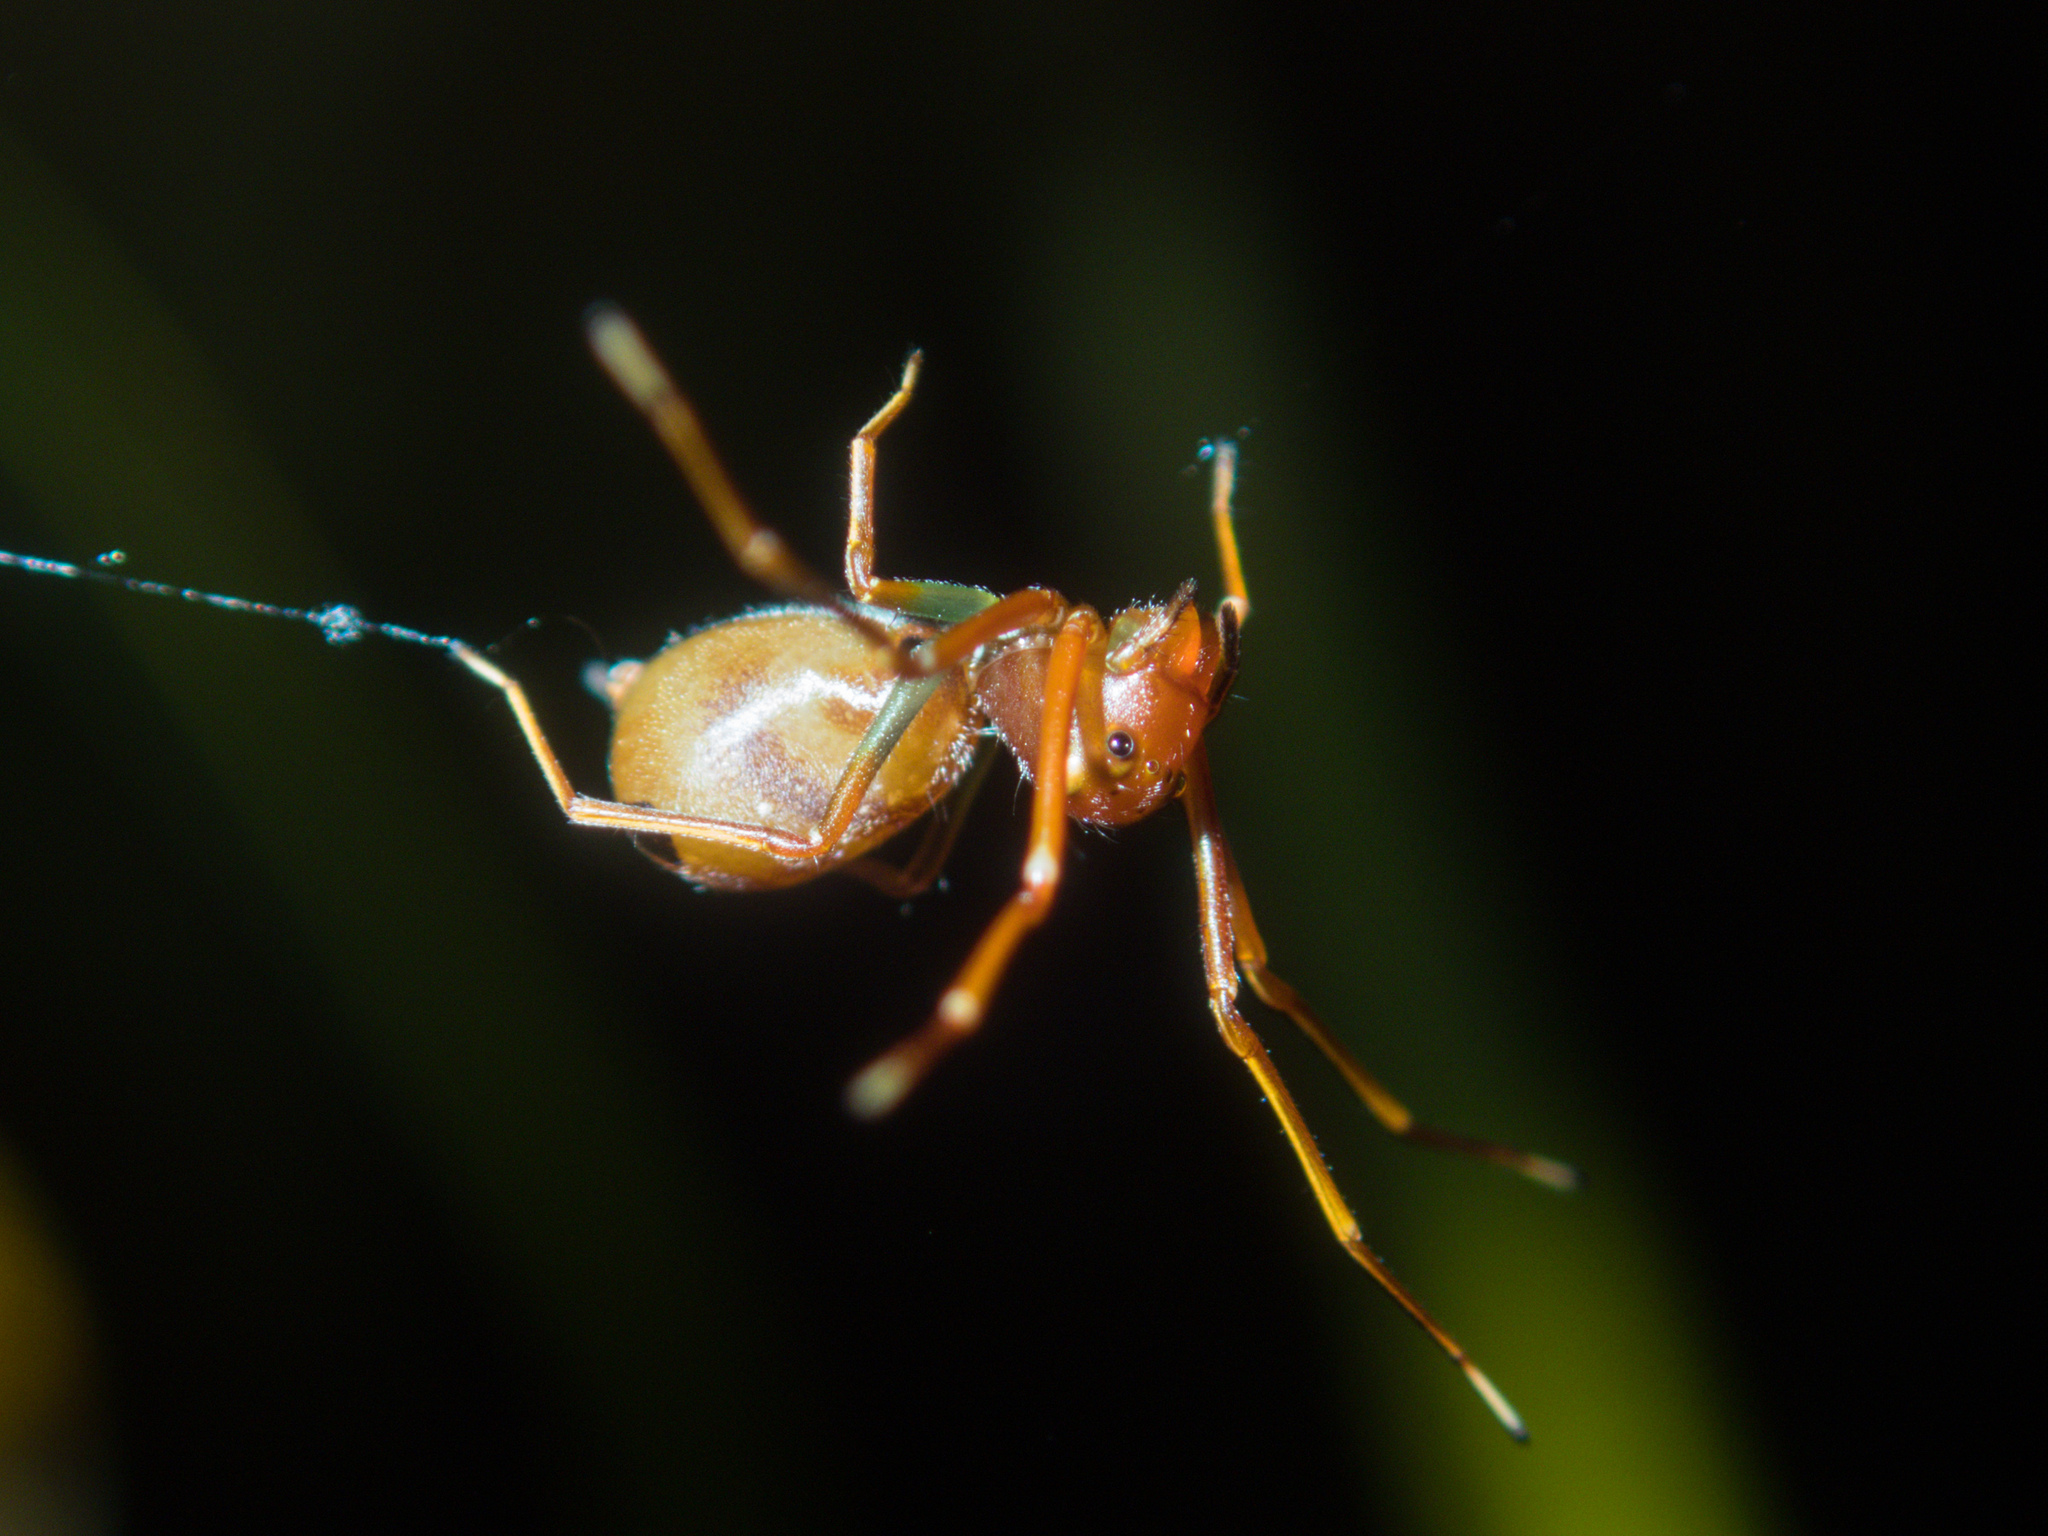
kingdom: Animalia
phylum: Arthropoda
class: Arachnida
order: Araneae
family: Thomisidae
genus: Amyciaea
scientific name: Amyciaea forticeps
